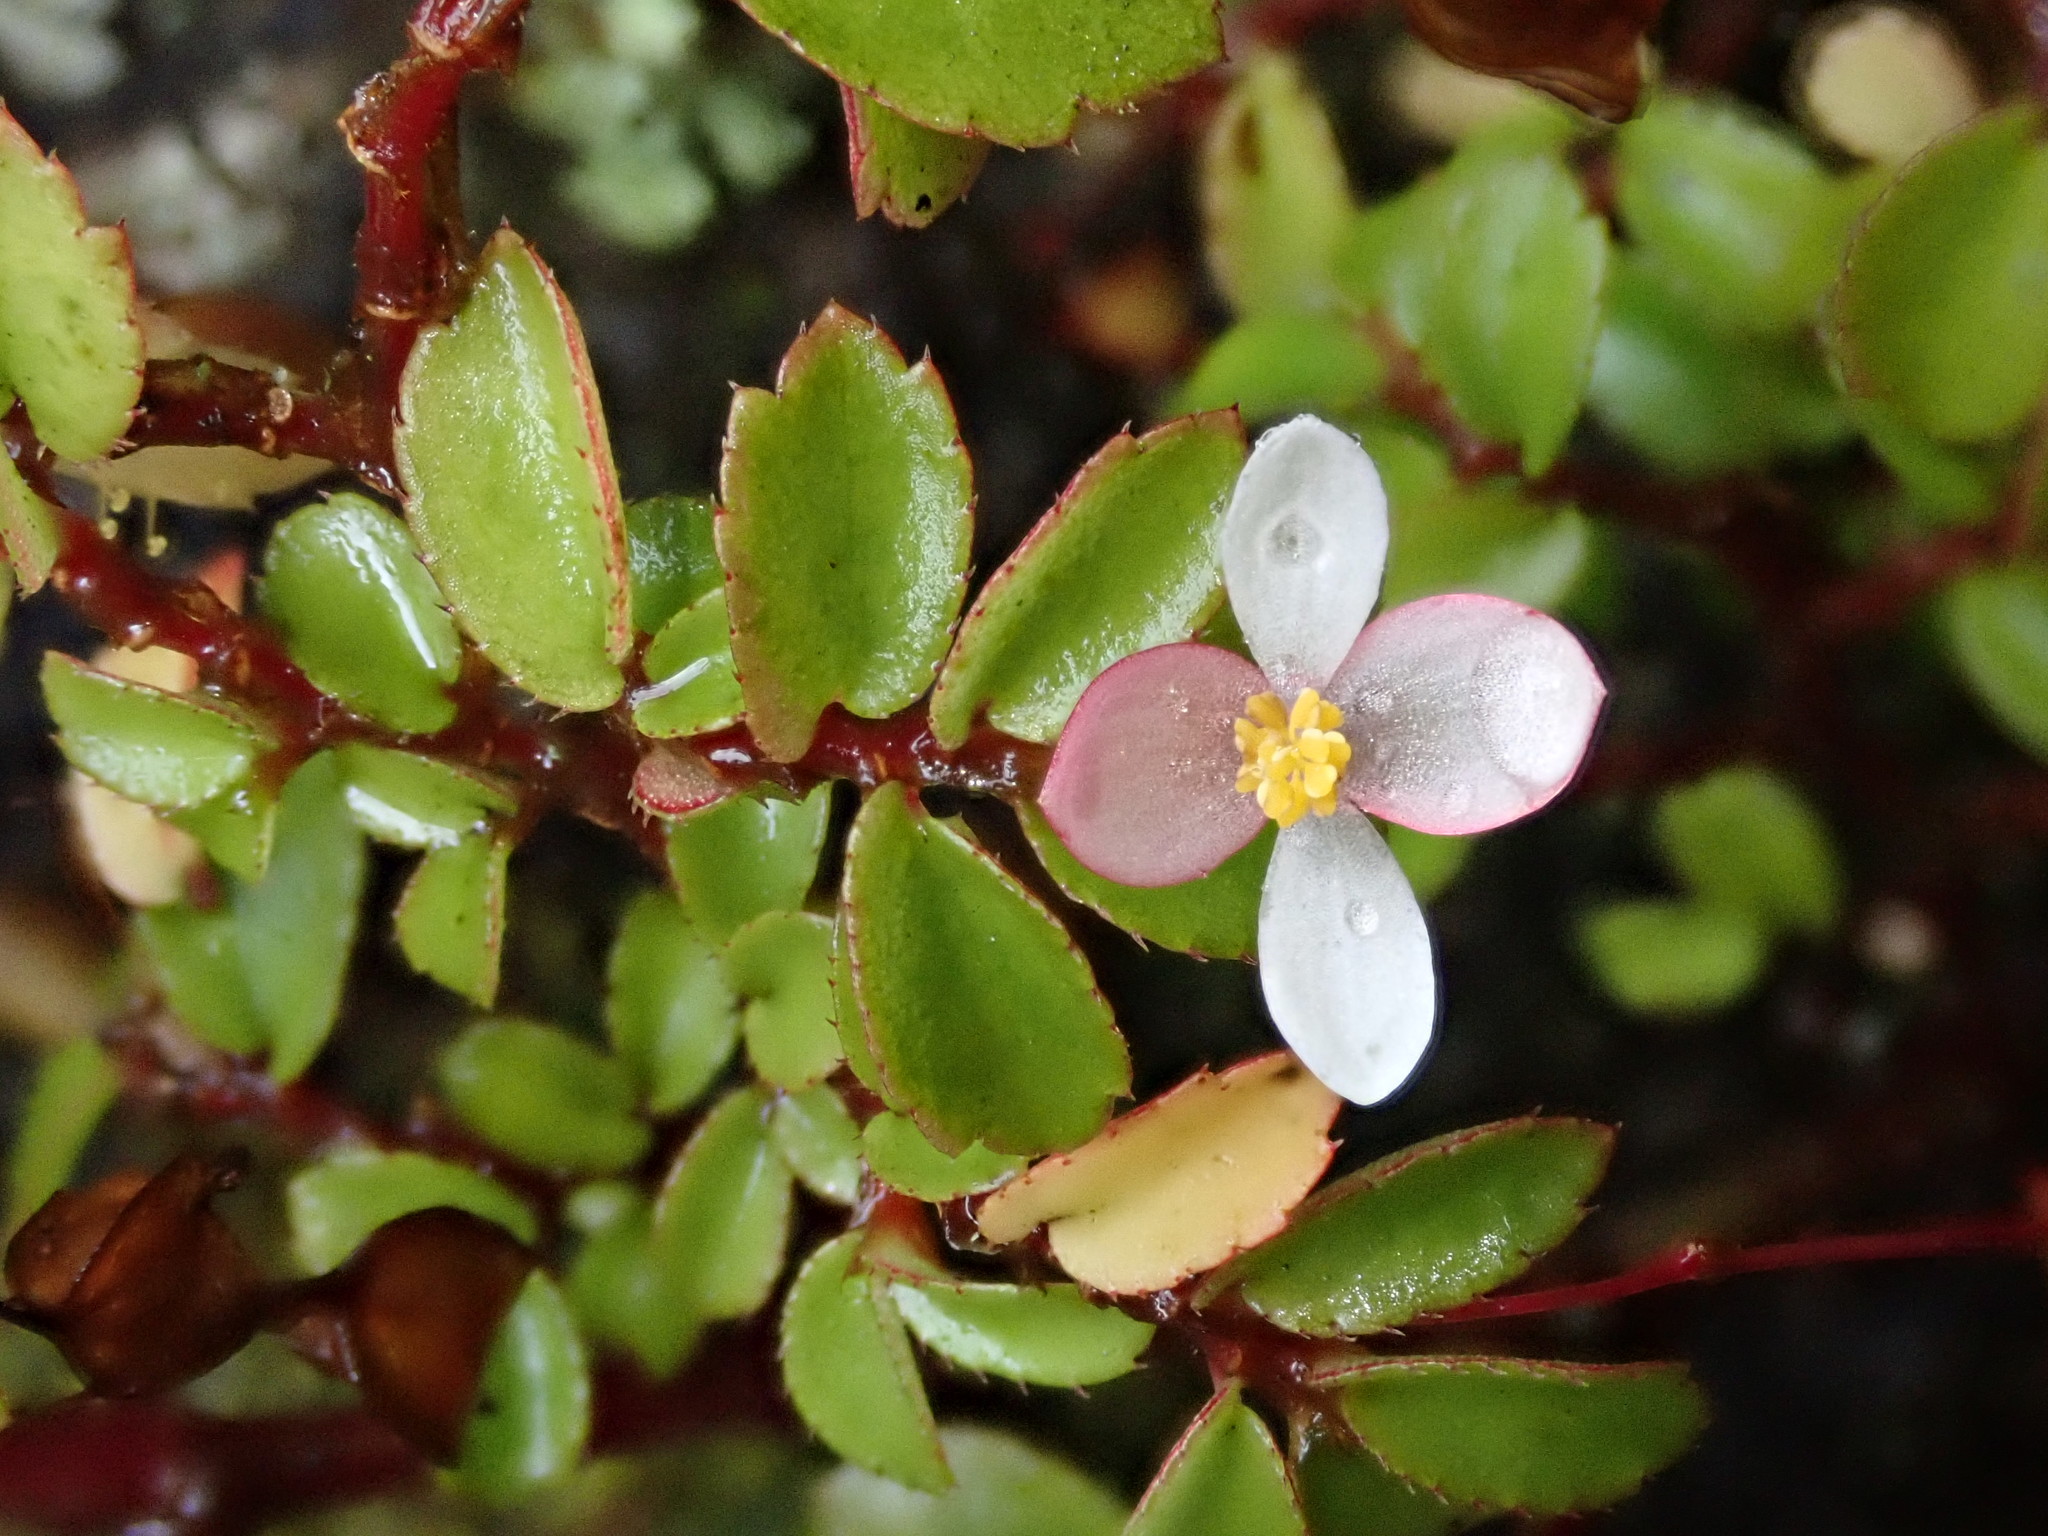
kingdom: Plantae
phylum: Tracheophyta
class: Magnoliopsida
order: Cucurbitales
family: Begoniaceae
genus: Begonia
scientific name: Begonia foliosa
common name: Fern begonia
